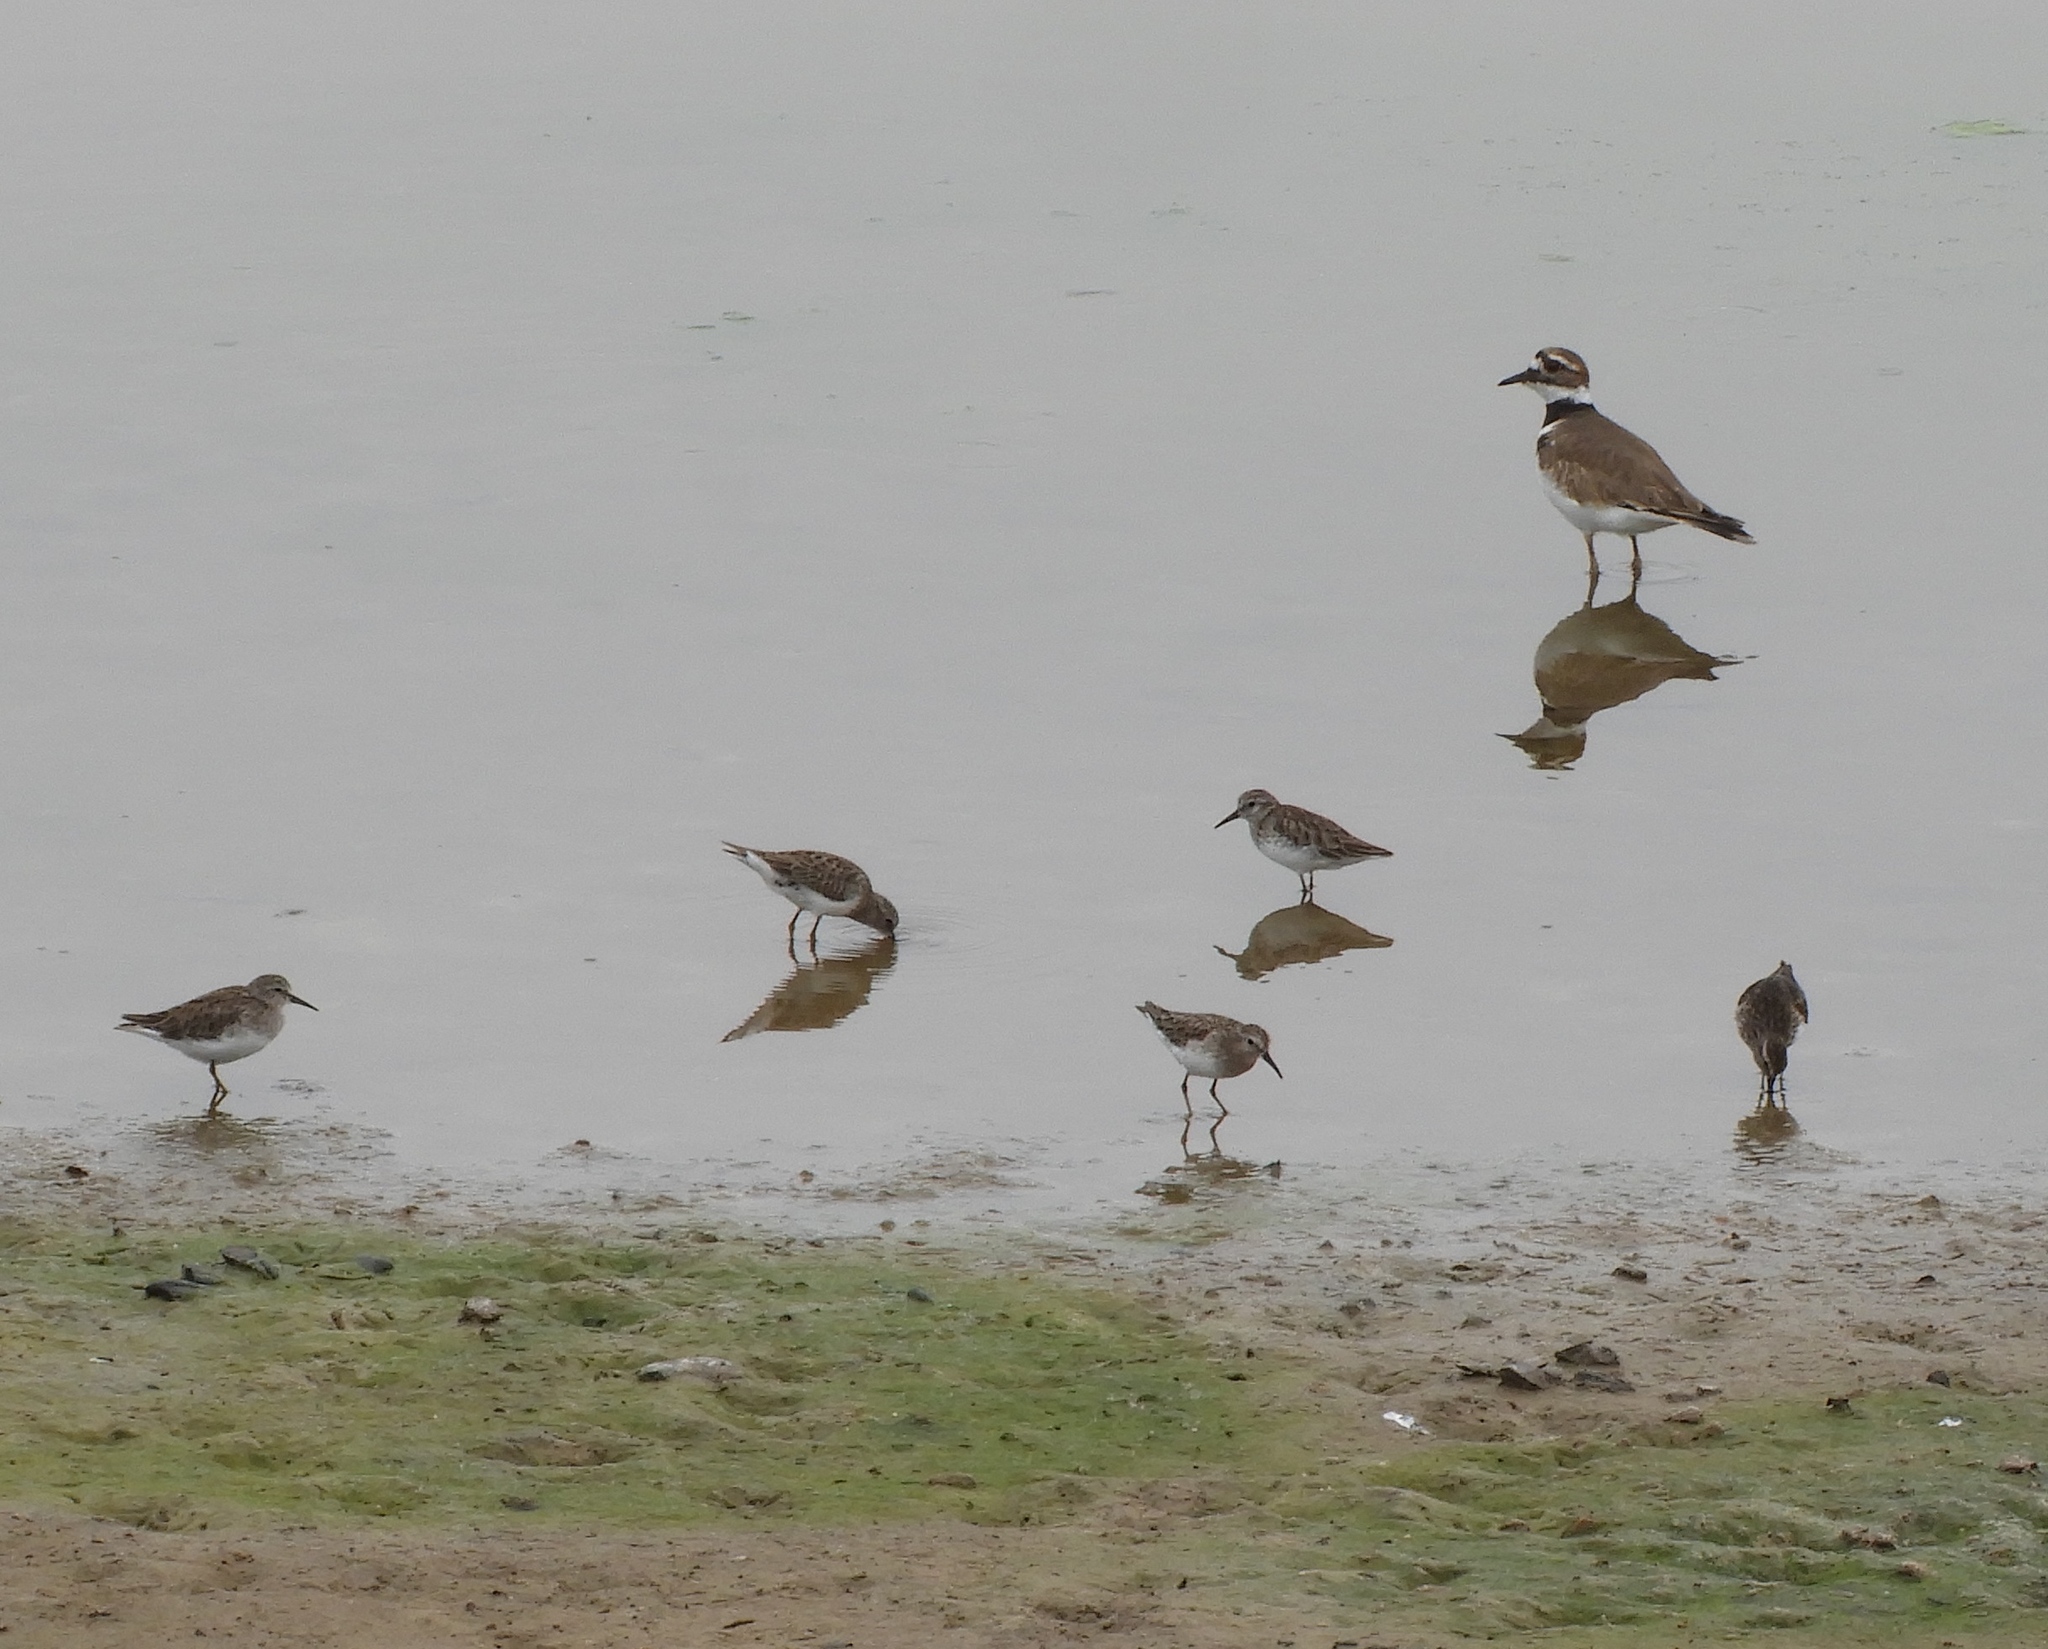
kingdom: Animalia
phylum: Chordata
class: Aves
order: Charadriiformes
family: Charadriidae
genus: Charadrius
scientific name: Charadrius vociferus
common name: Killdeer
